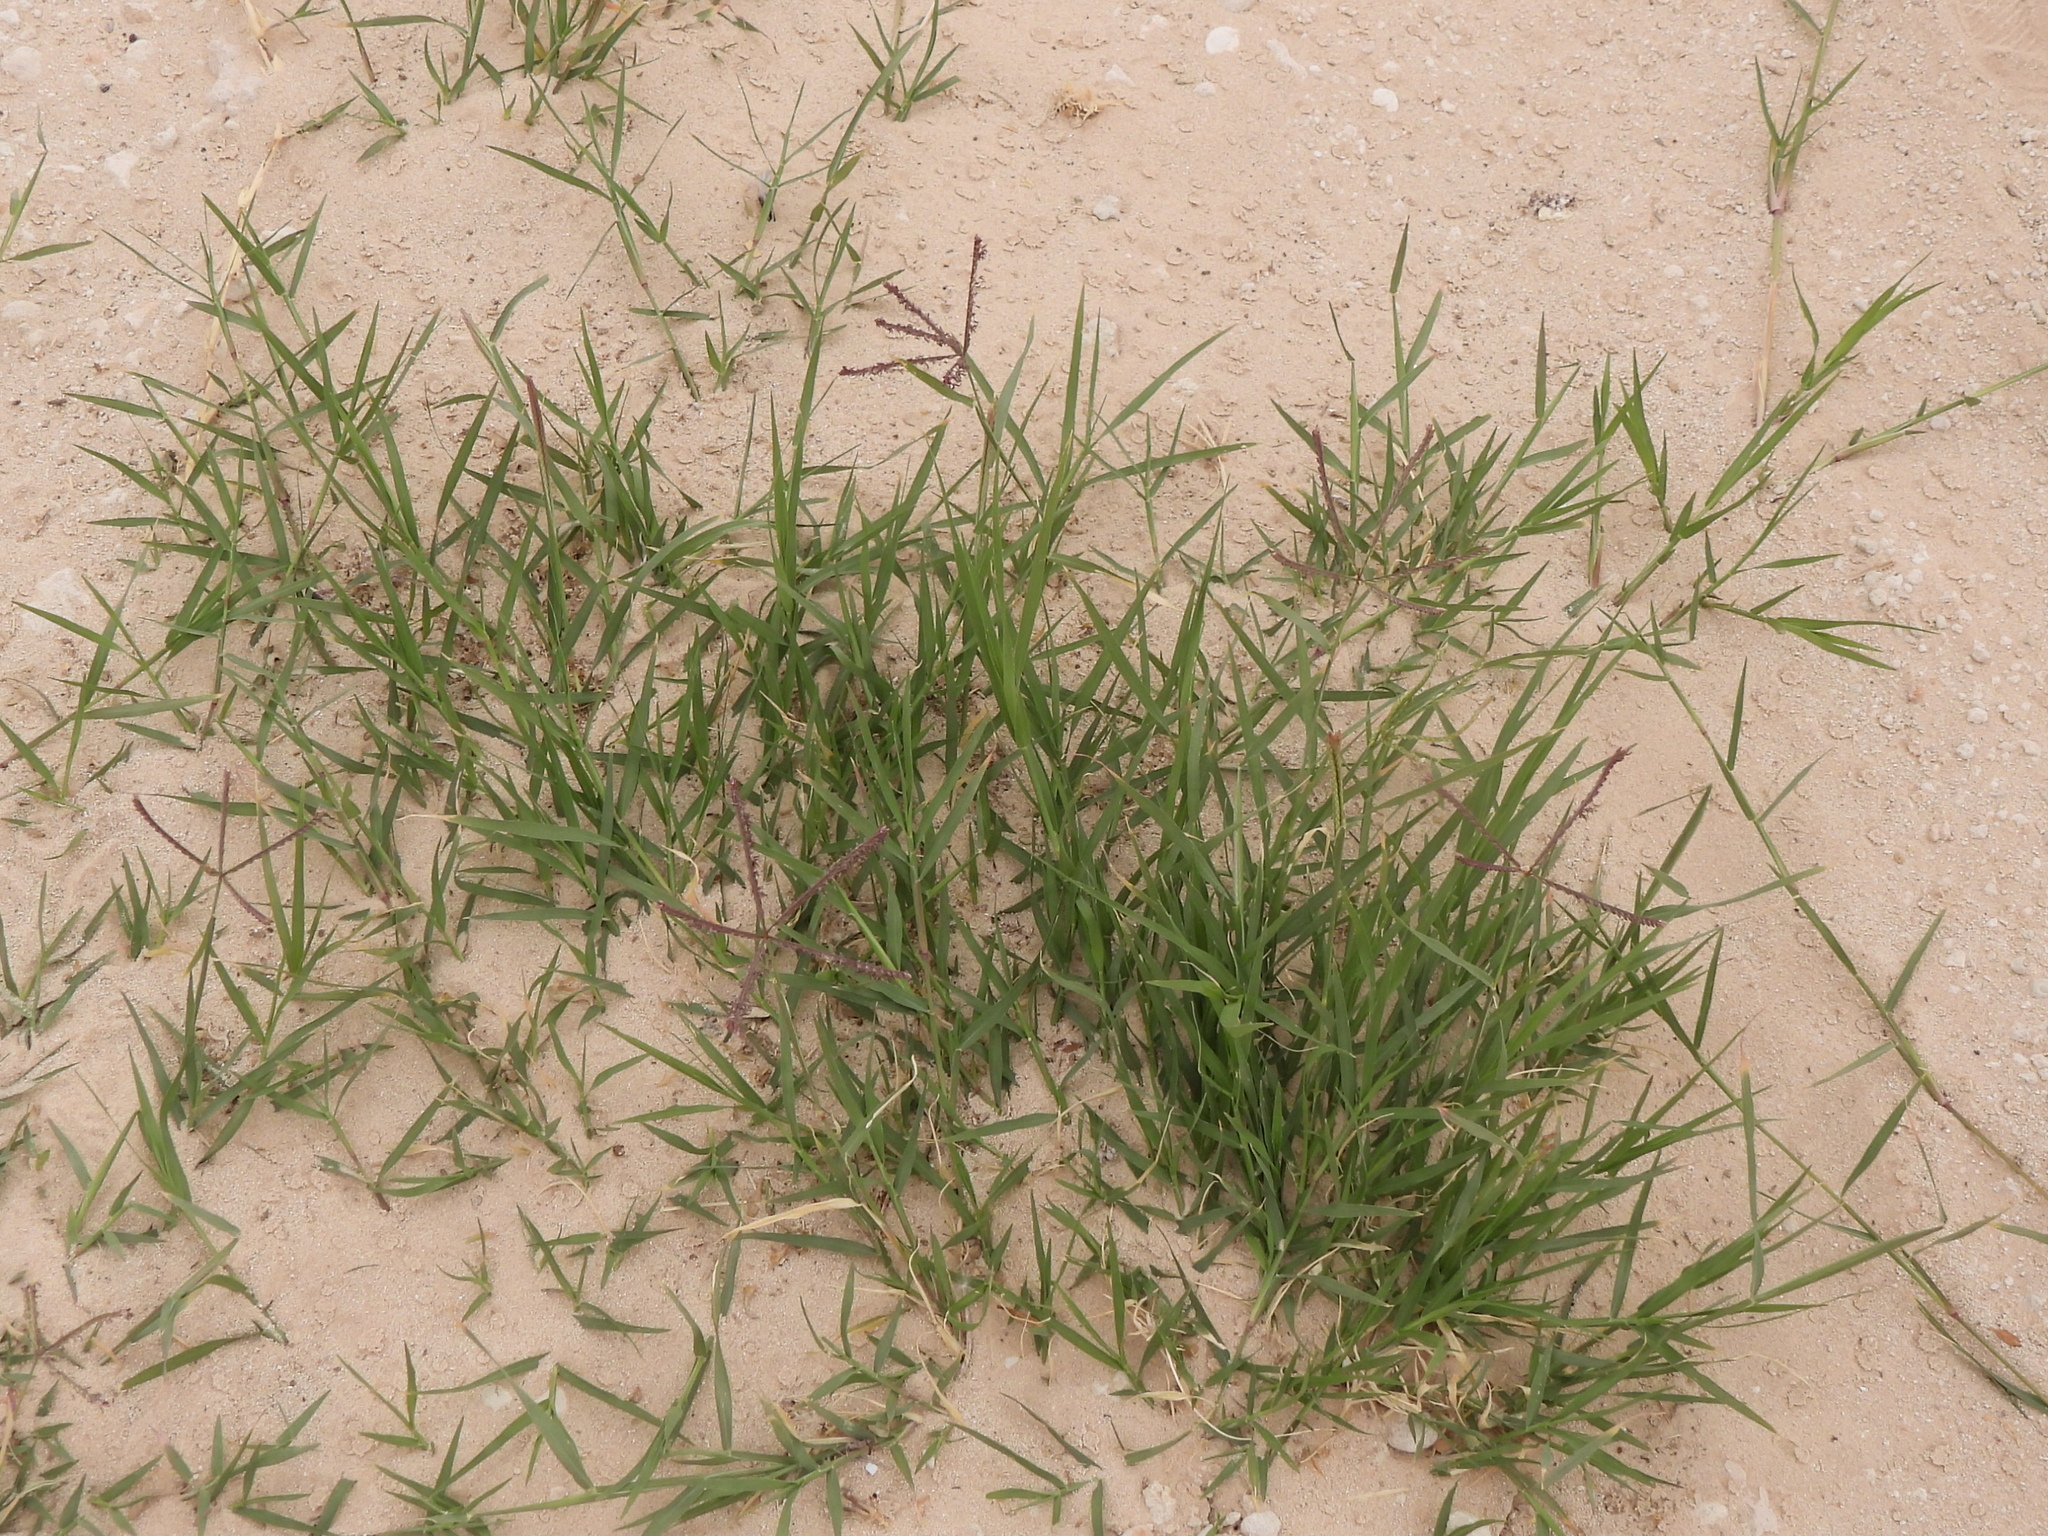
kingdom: Plantae
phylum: Tracheophyta
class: Liliopsida
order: Poales
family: Poaceae
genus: Cynodon
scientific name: Cynodon dactylon
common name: Bermuda grass
